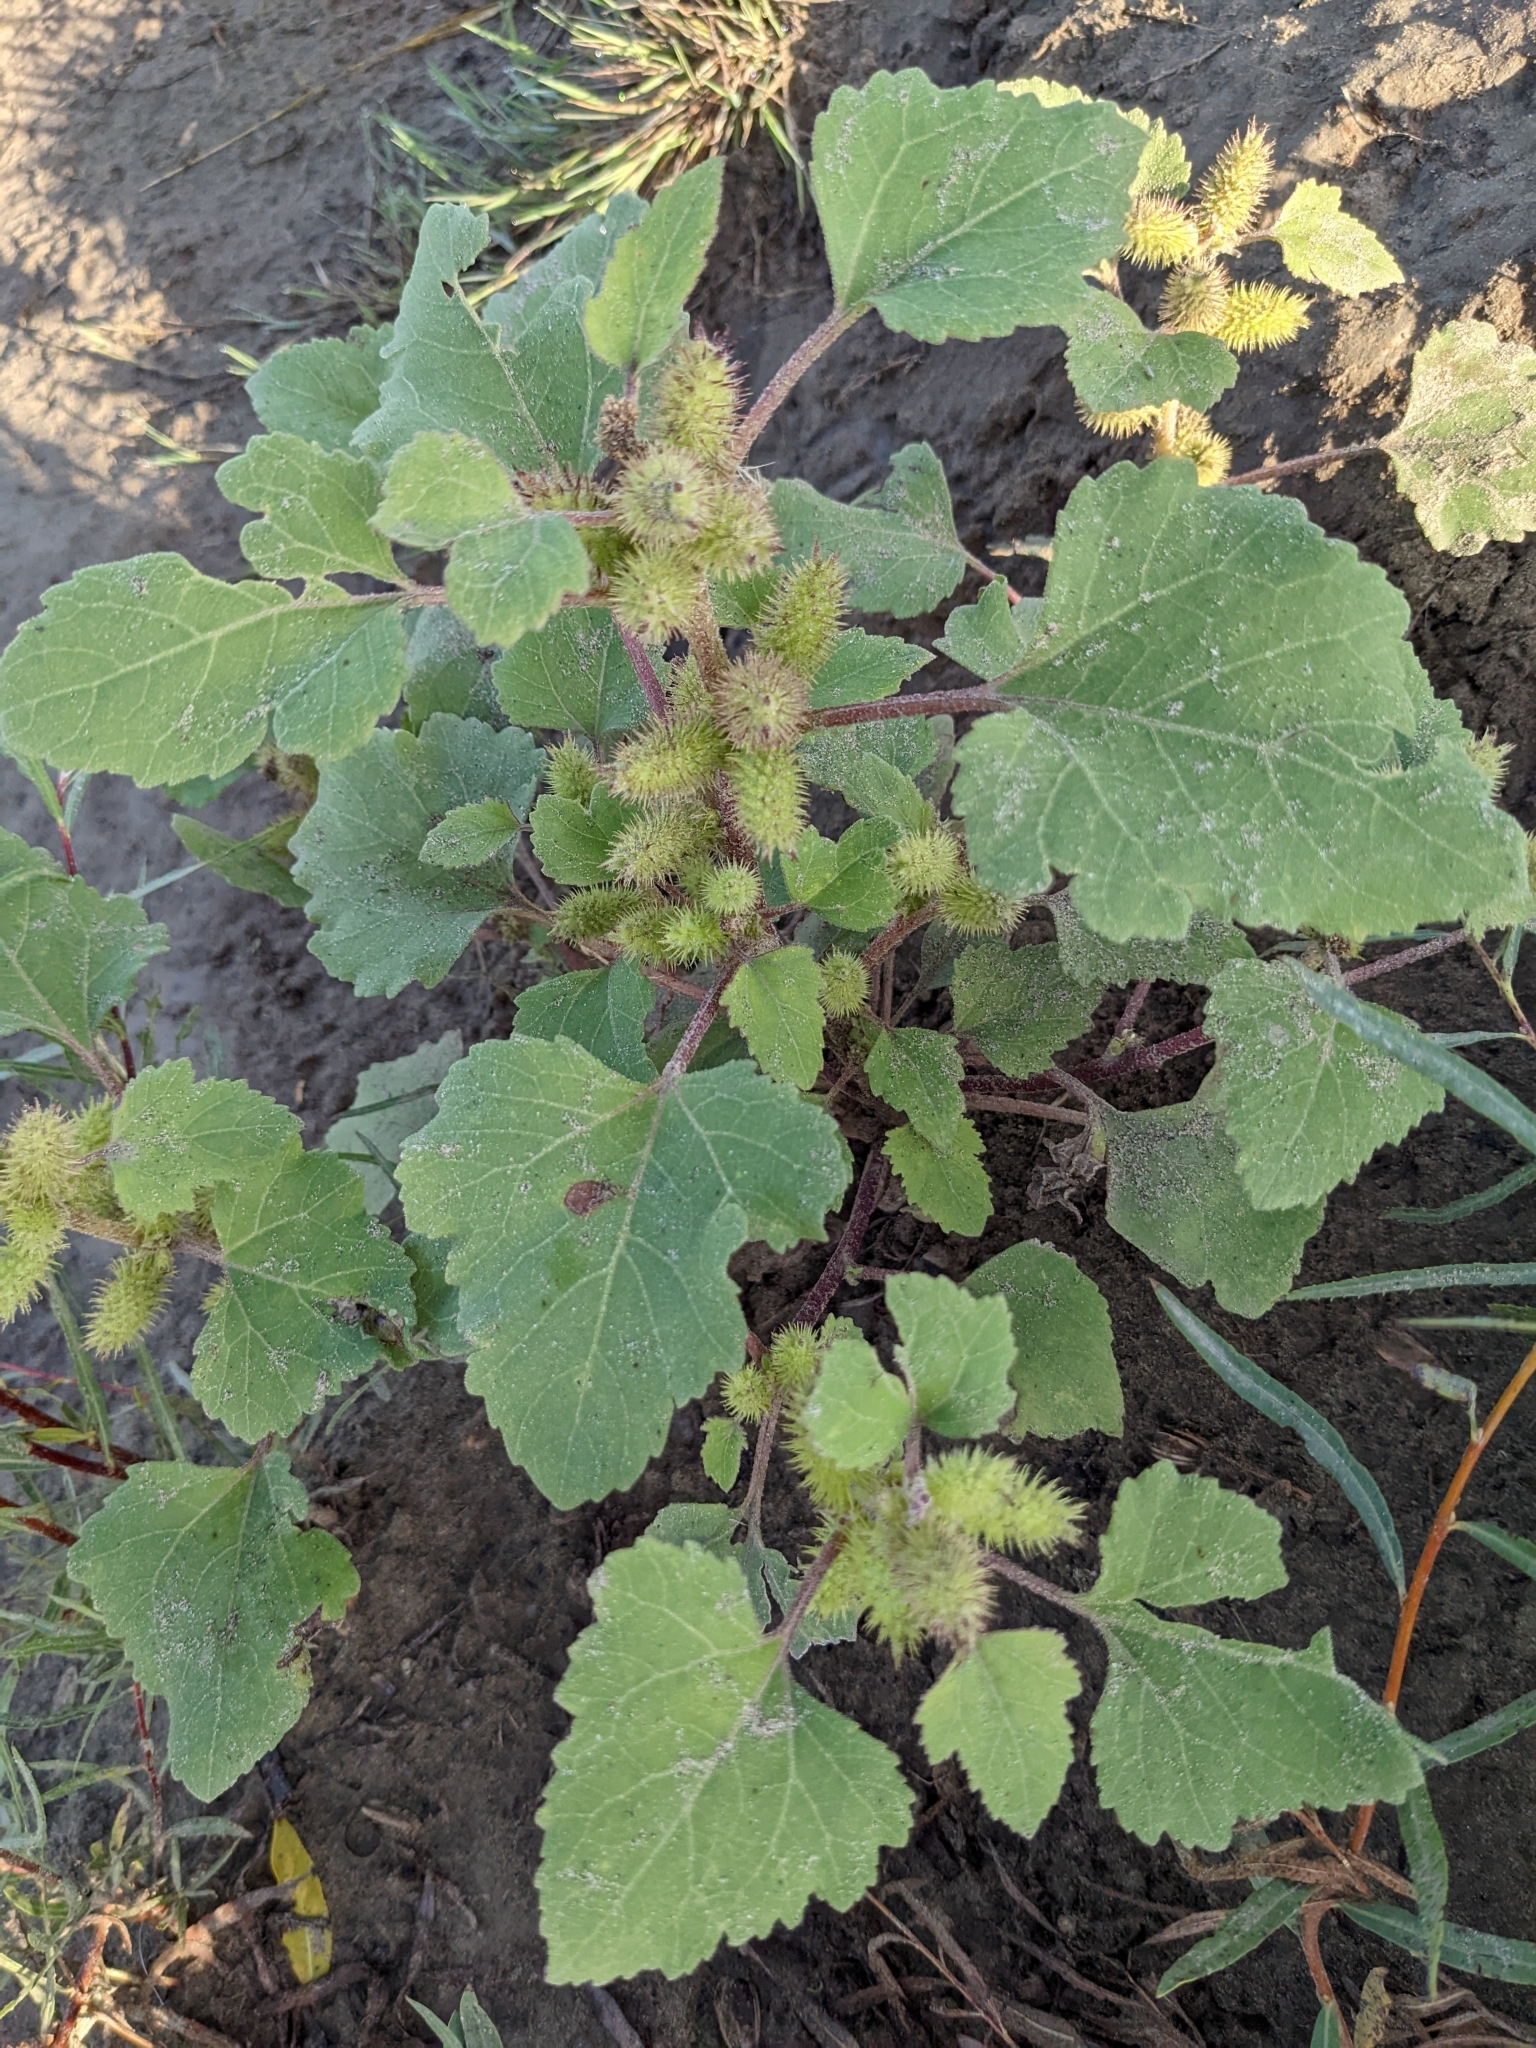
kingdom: Plantae
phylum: Tracheophyta
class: Magnoliopsida
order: Asterales
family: Asteraceae
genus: Xanthium
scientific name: Xanthium strumarium
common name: Rough cocklebur
